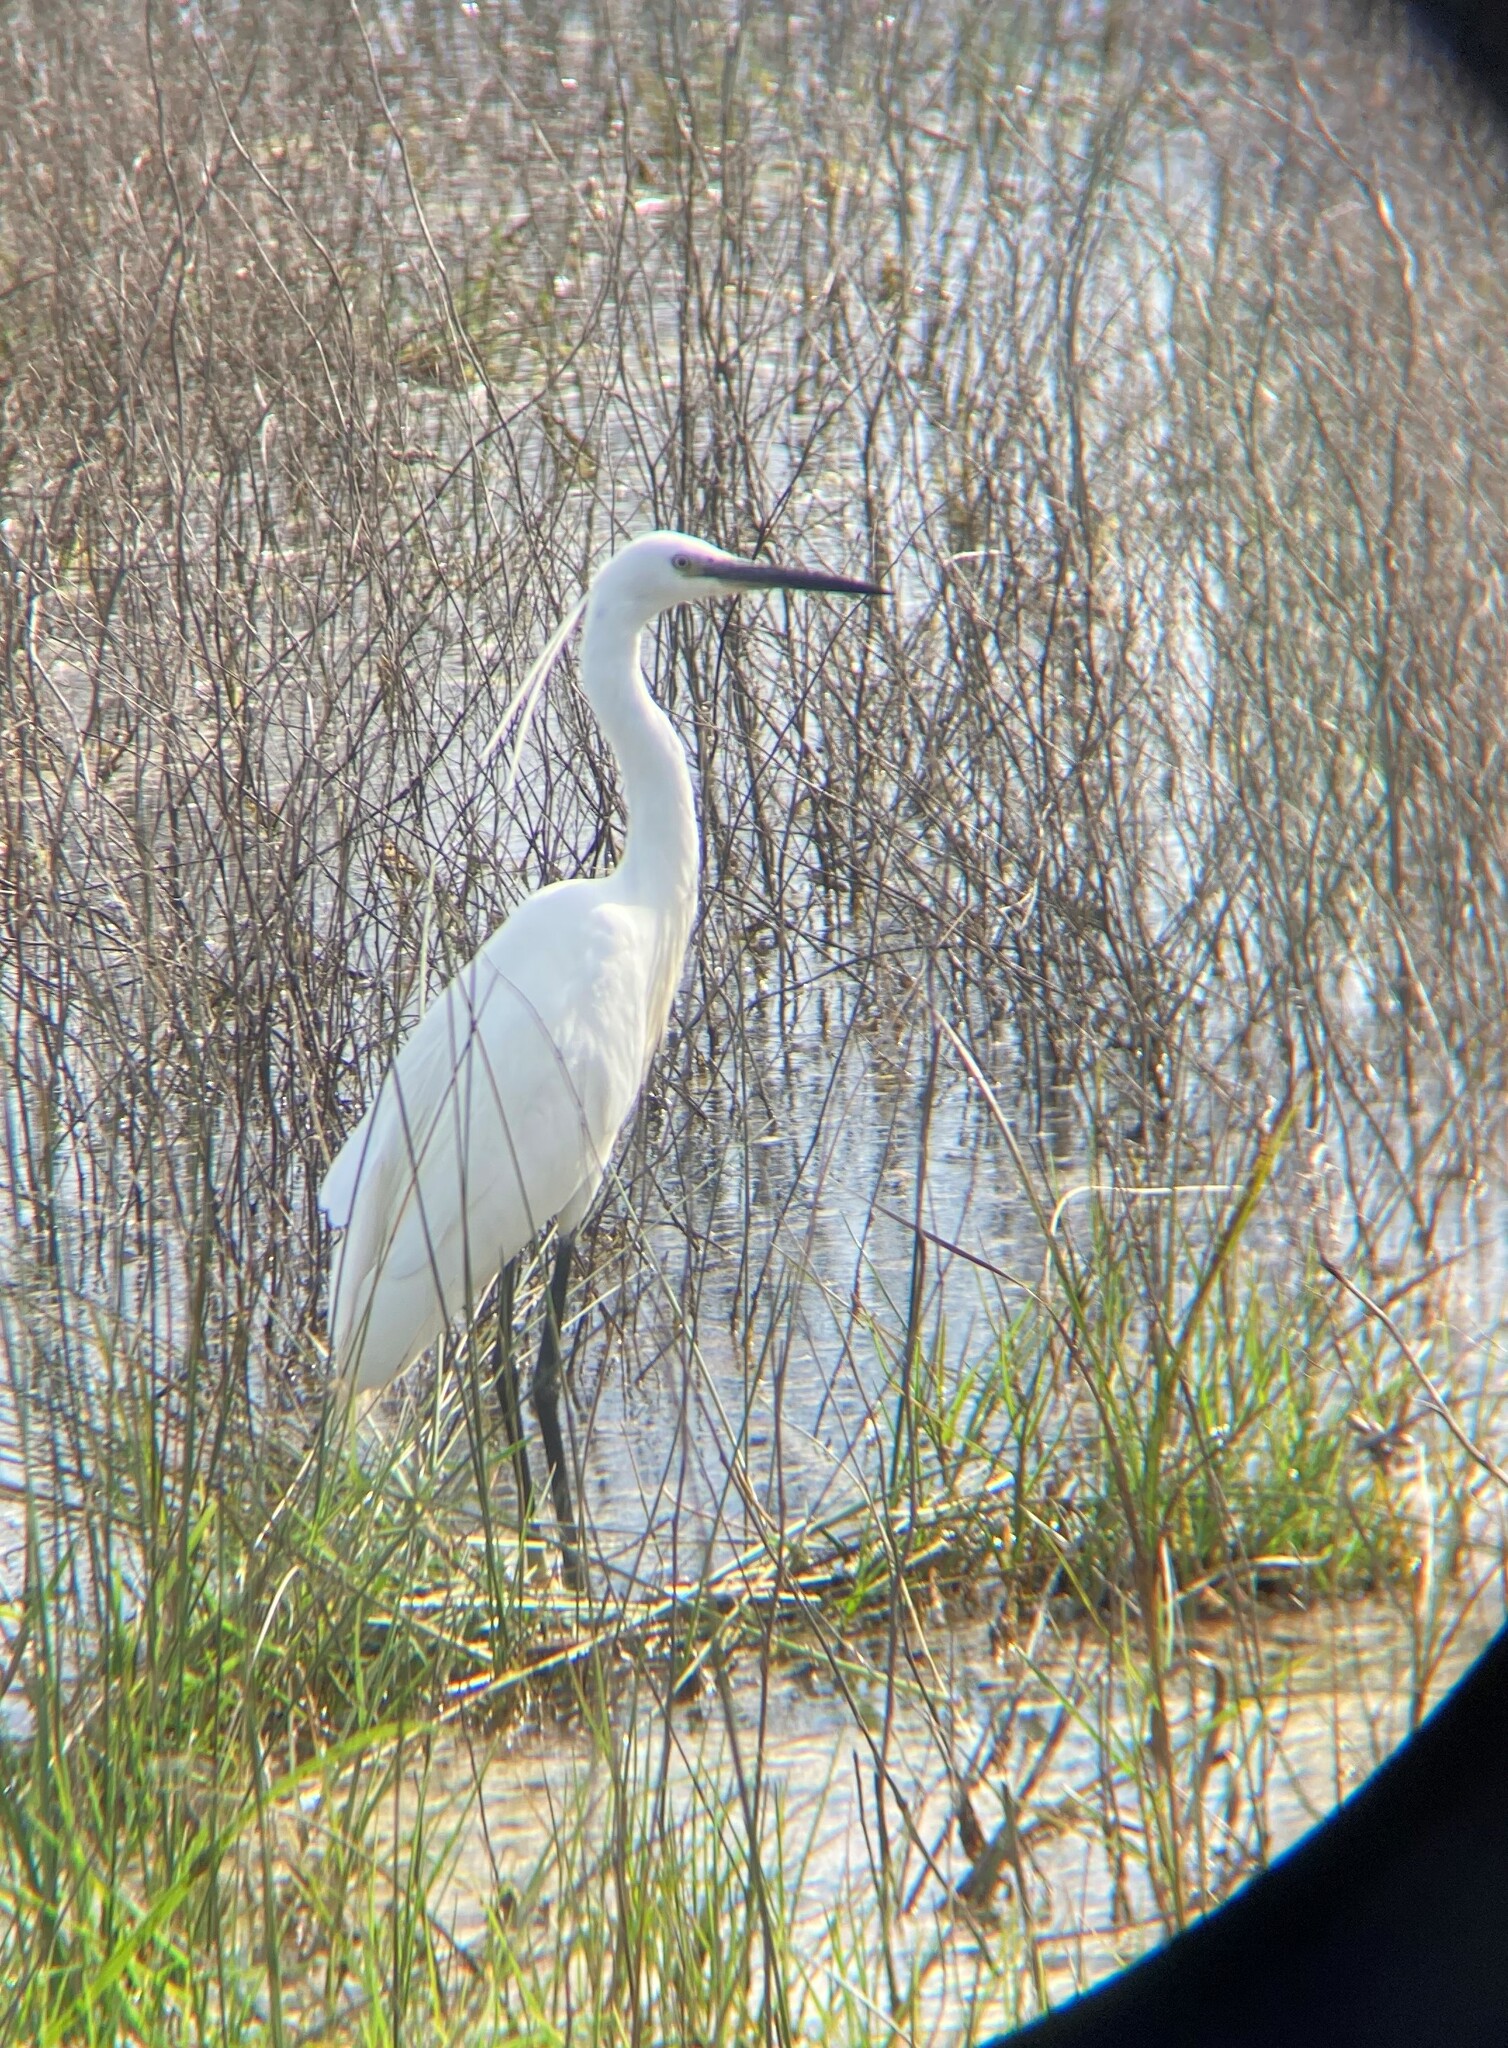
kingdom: Animalia
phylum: Chordata
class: Aves
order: Pelecaniformes
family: Ardeidae
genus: Egretta
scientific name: Egretta garzetta
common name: Little egret
